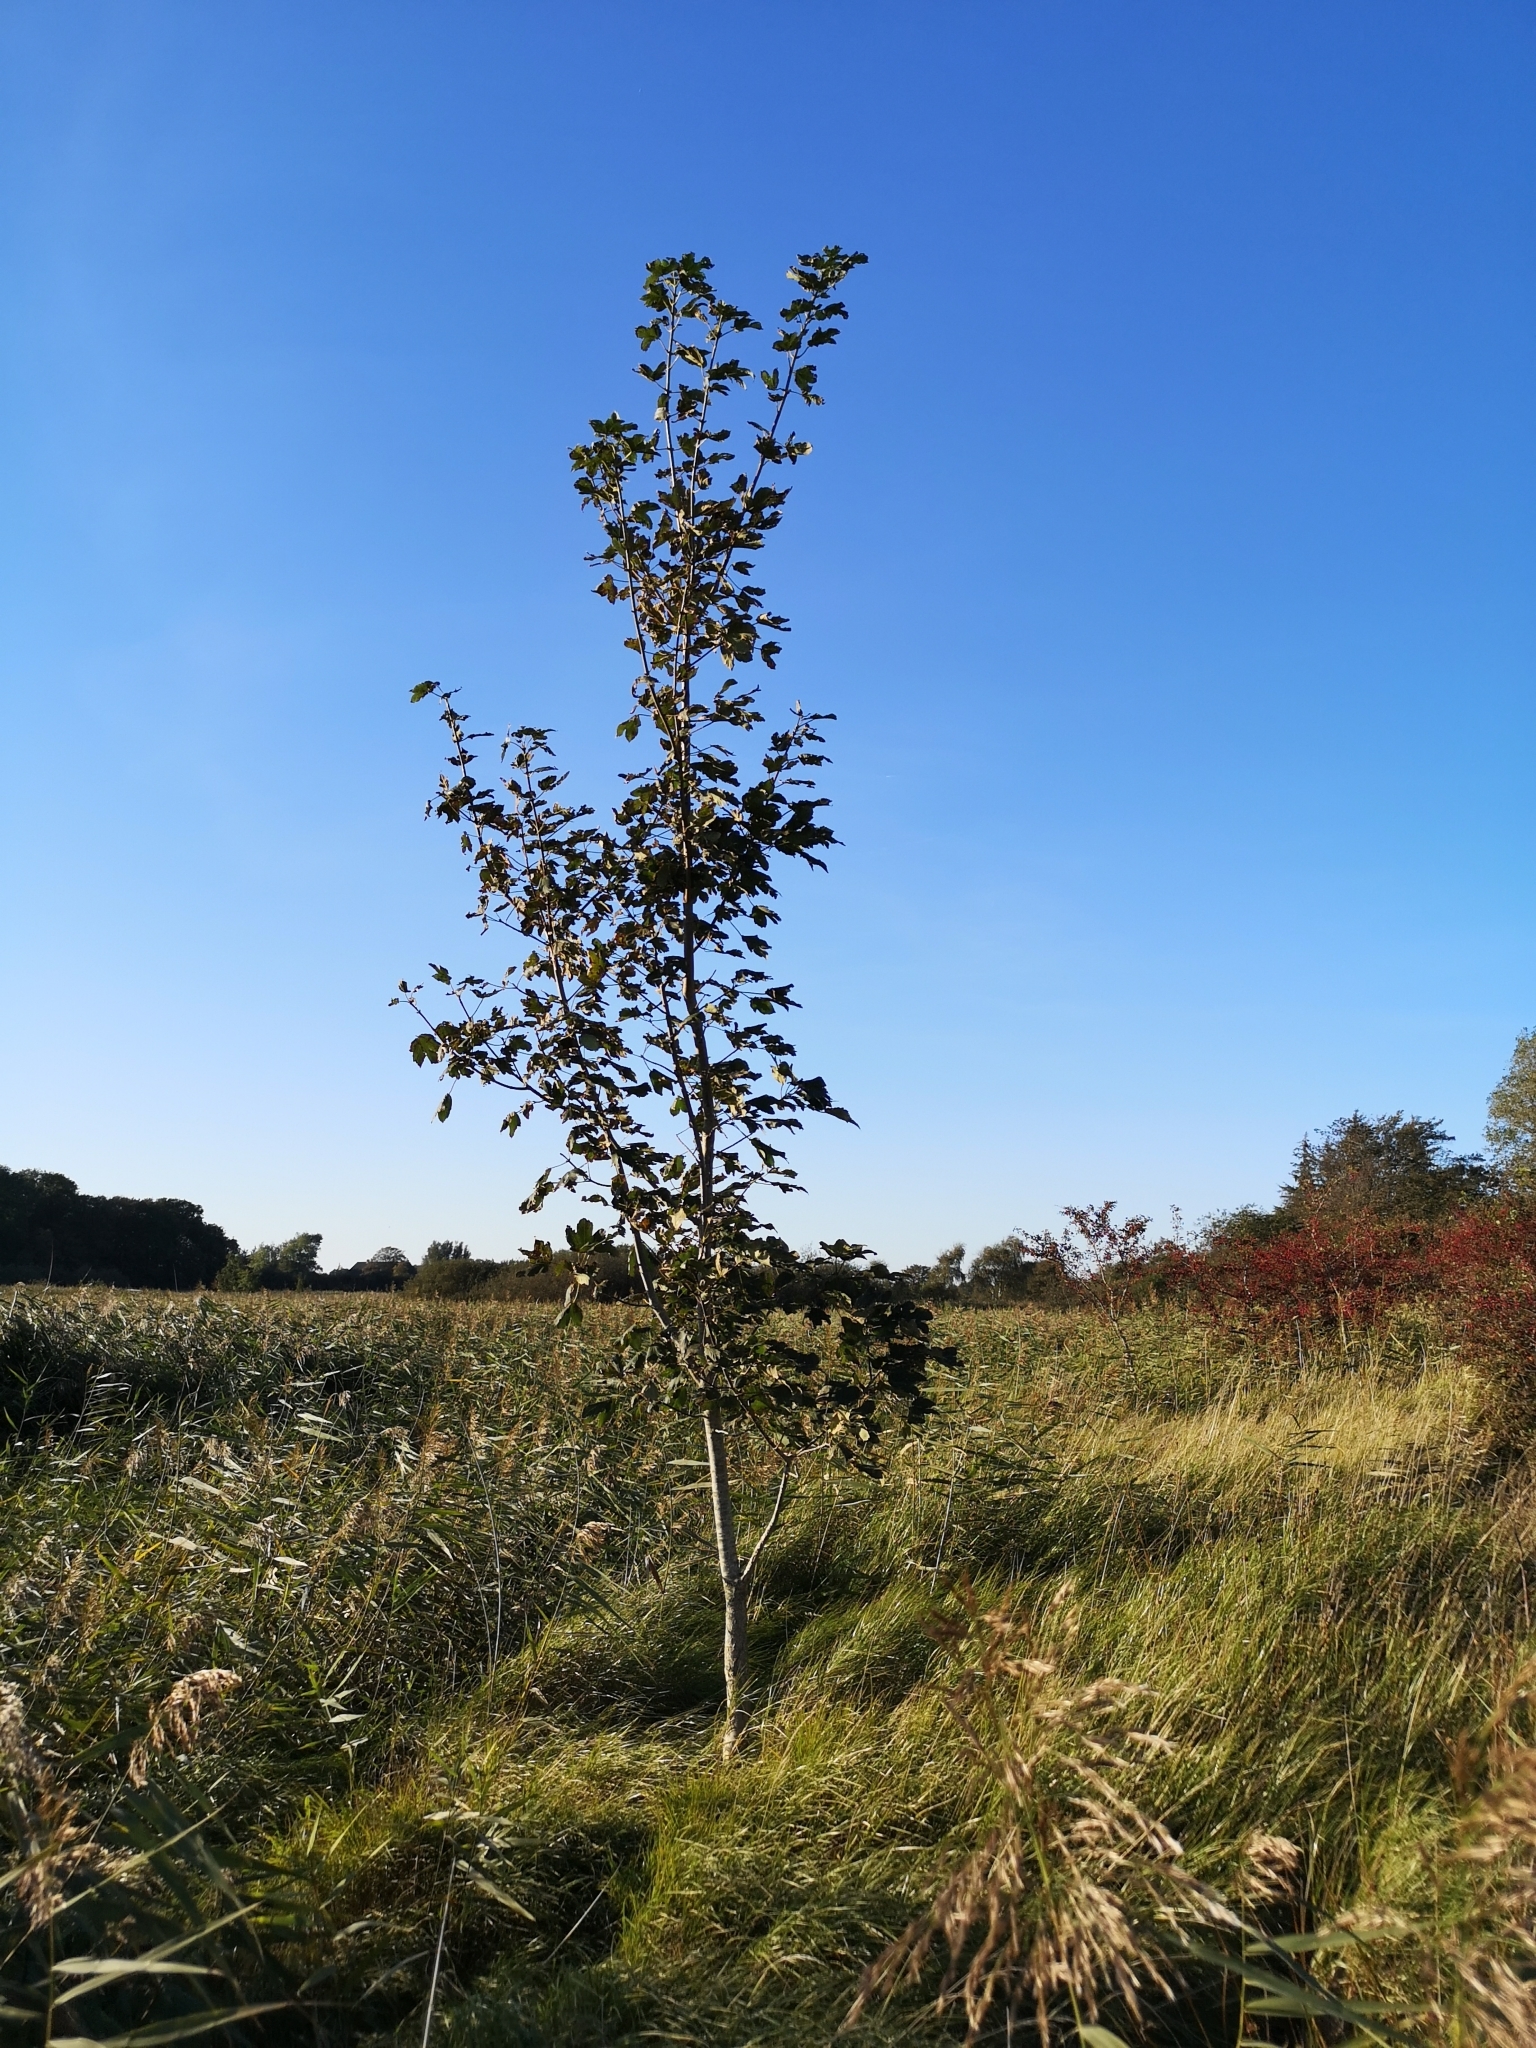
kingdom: Plantae
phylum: Tracheophyta
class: Magnoliopsida
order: Sapindales
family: Sapindaceae
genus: Acer
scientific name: Acer pseudoplatanus
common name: Sycamore
